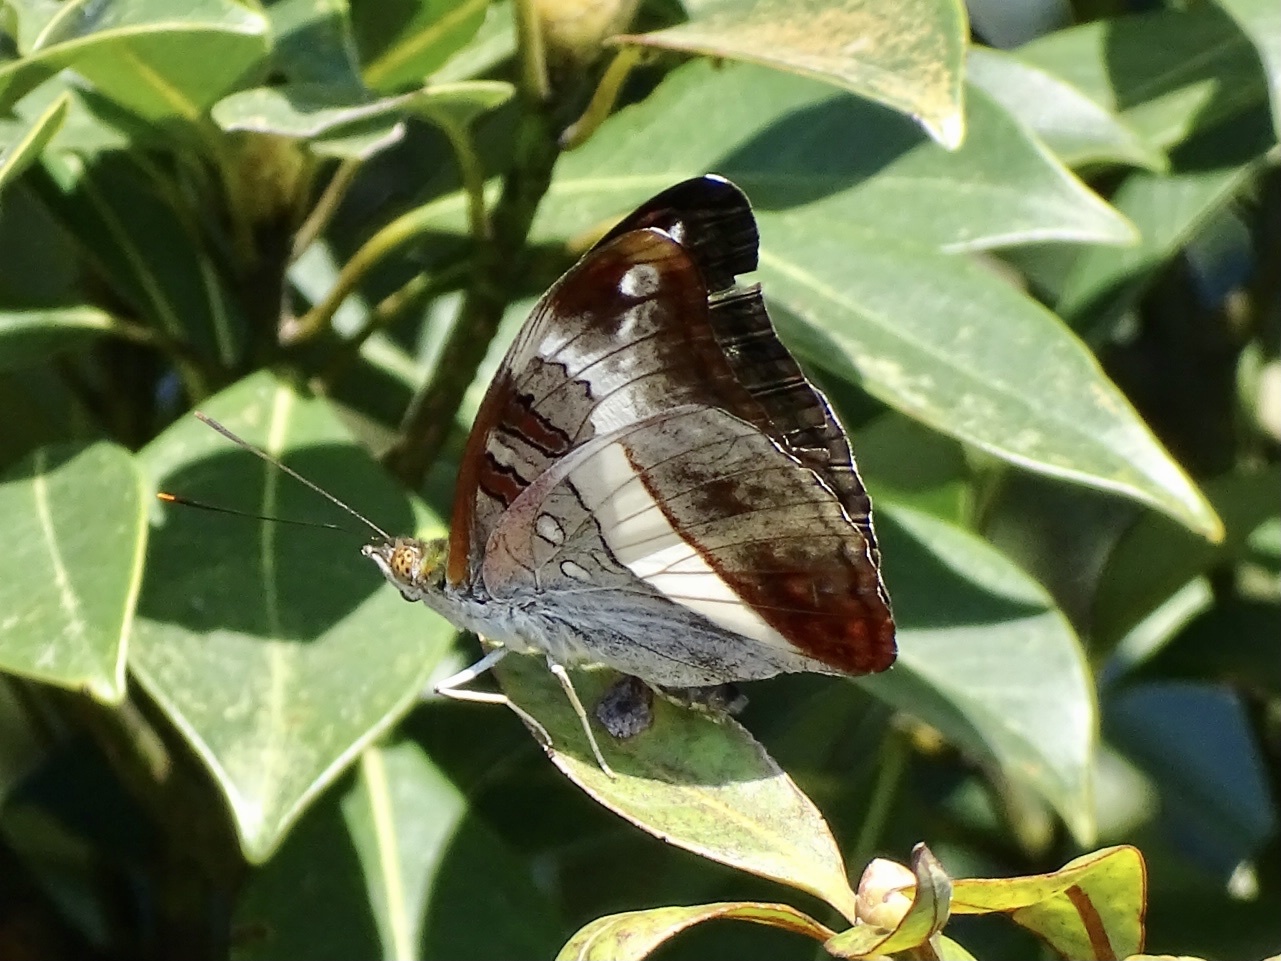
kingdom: Animalia
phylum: Arthropoda
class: Insecta
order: Lepidoptera
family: Nymphalidae
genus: Limenitis
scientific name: Limenitis Parasarpa dudu
